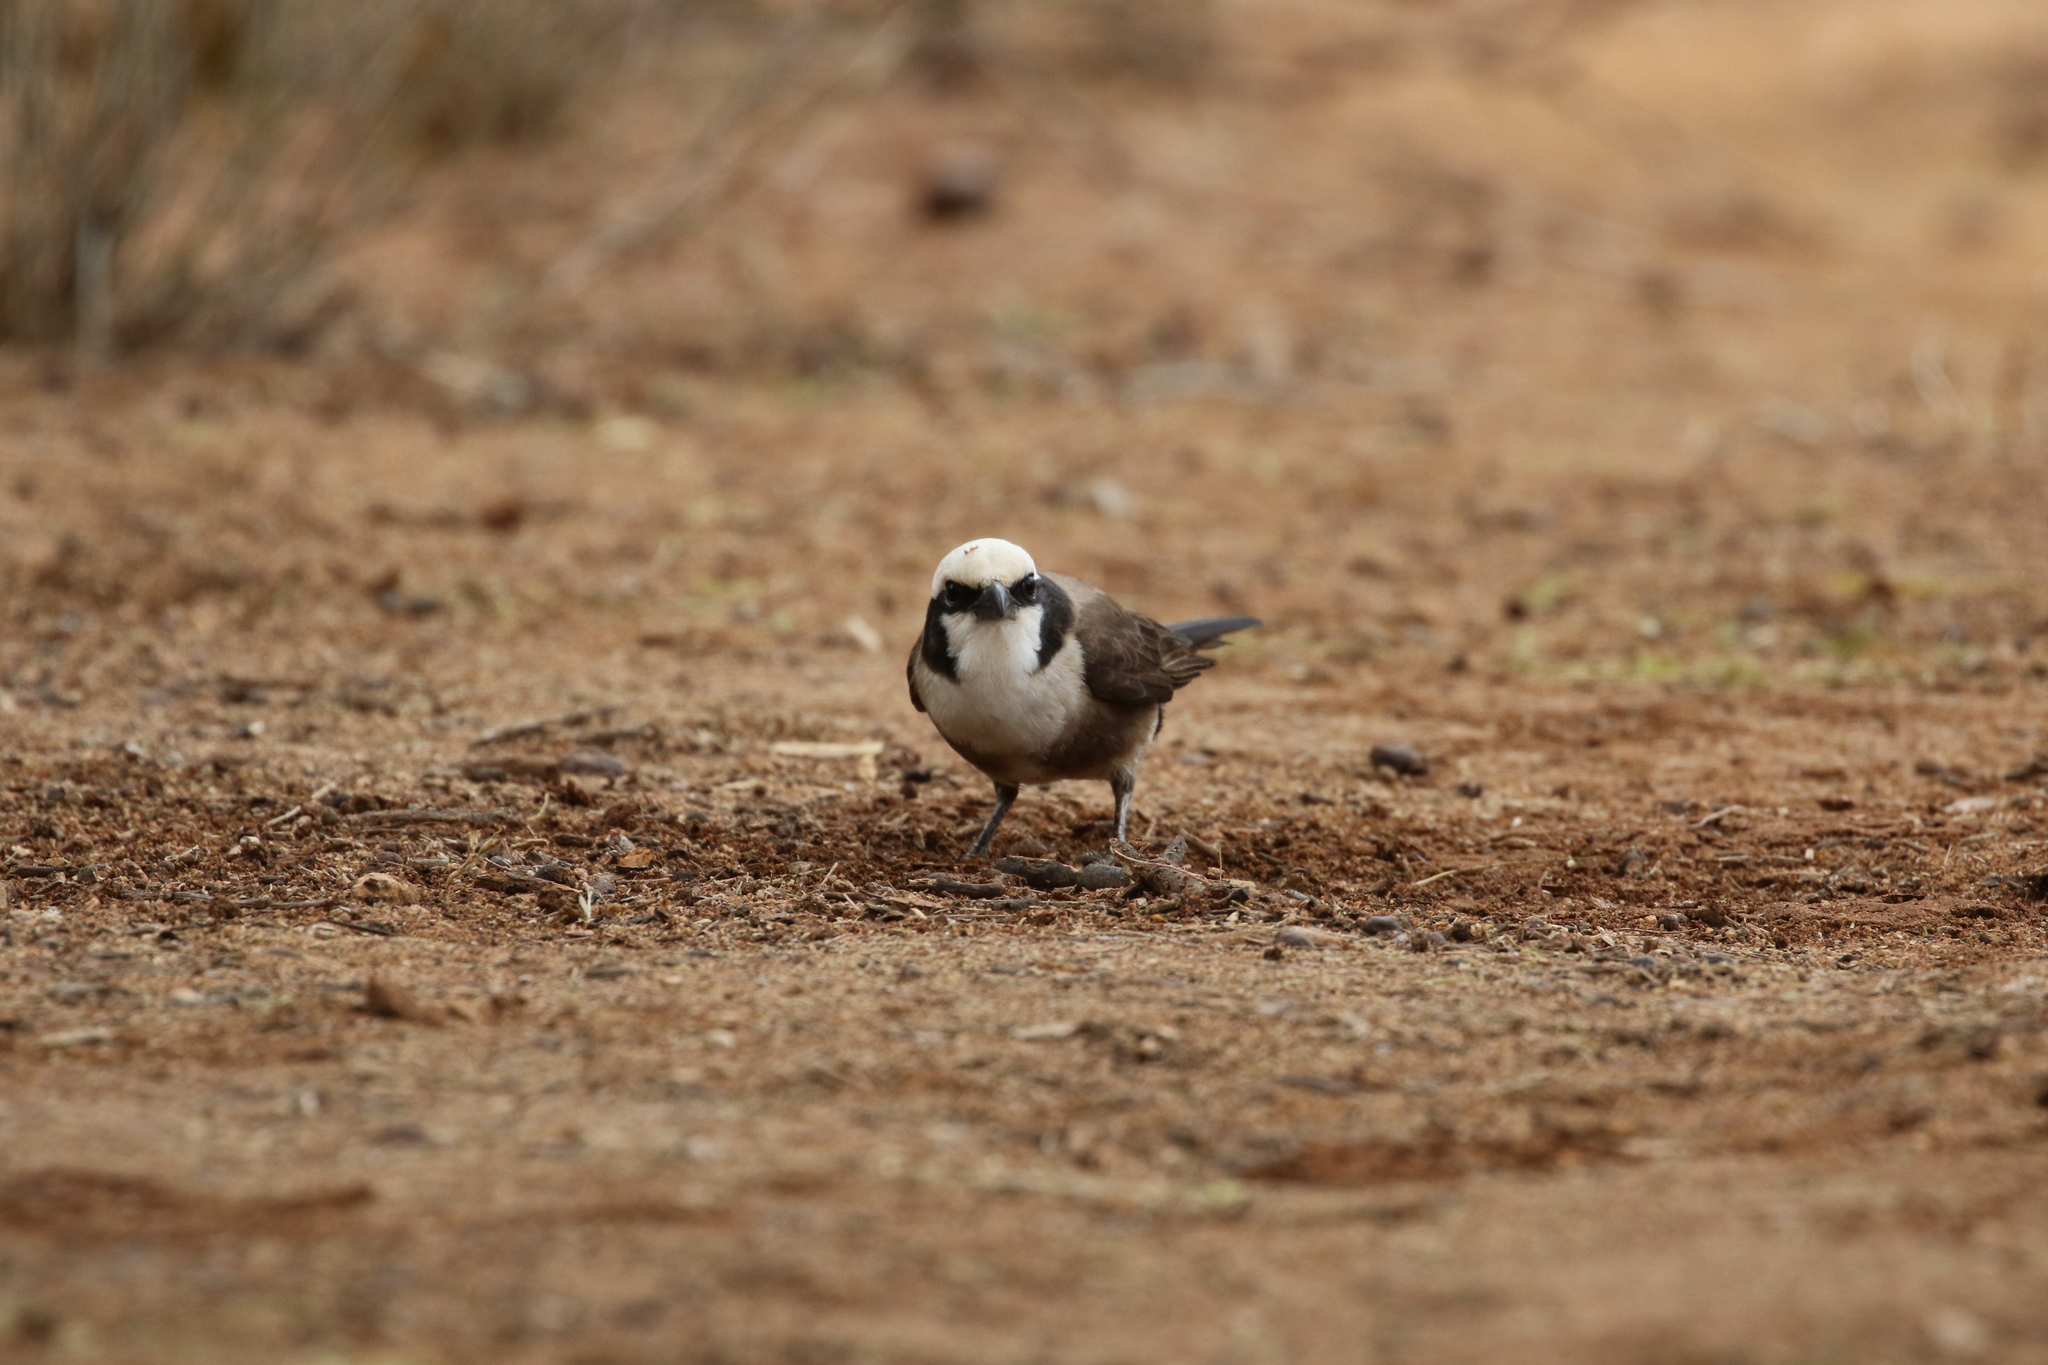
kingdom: Animalia
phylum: Chordata
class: Aves
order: Passeriformes
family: Laniidae
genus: Eurocephalus
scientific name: Eurocephalus ruppelli
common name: Northern white-crowned shrike
